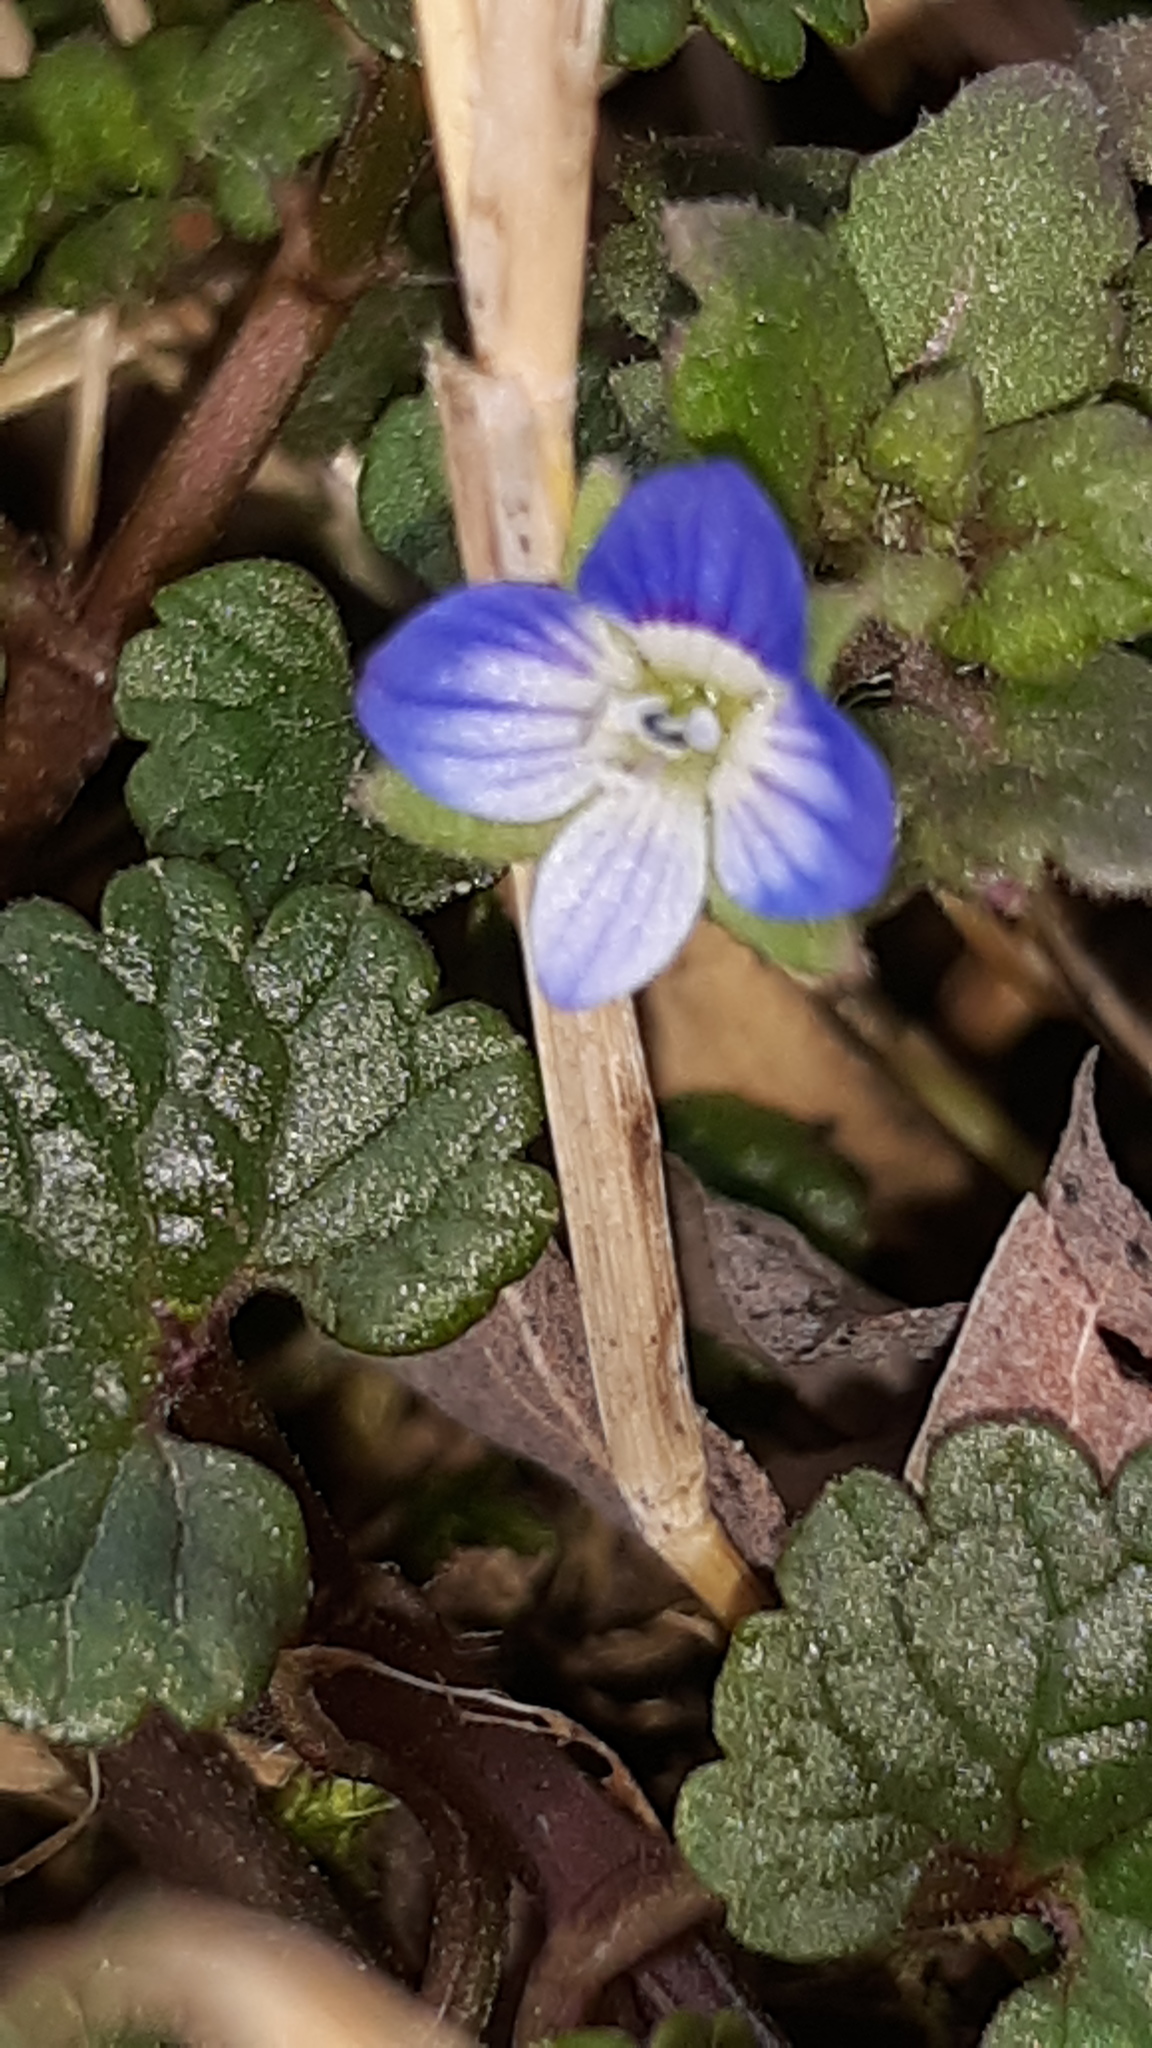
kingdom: Plantae
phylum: Tracheophyta
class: Magnoliopsida
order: Lamiales
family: Plantaginaceae
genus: Veronica
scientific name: Veronica polita
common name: Grey field-speedwell
